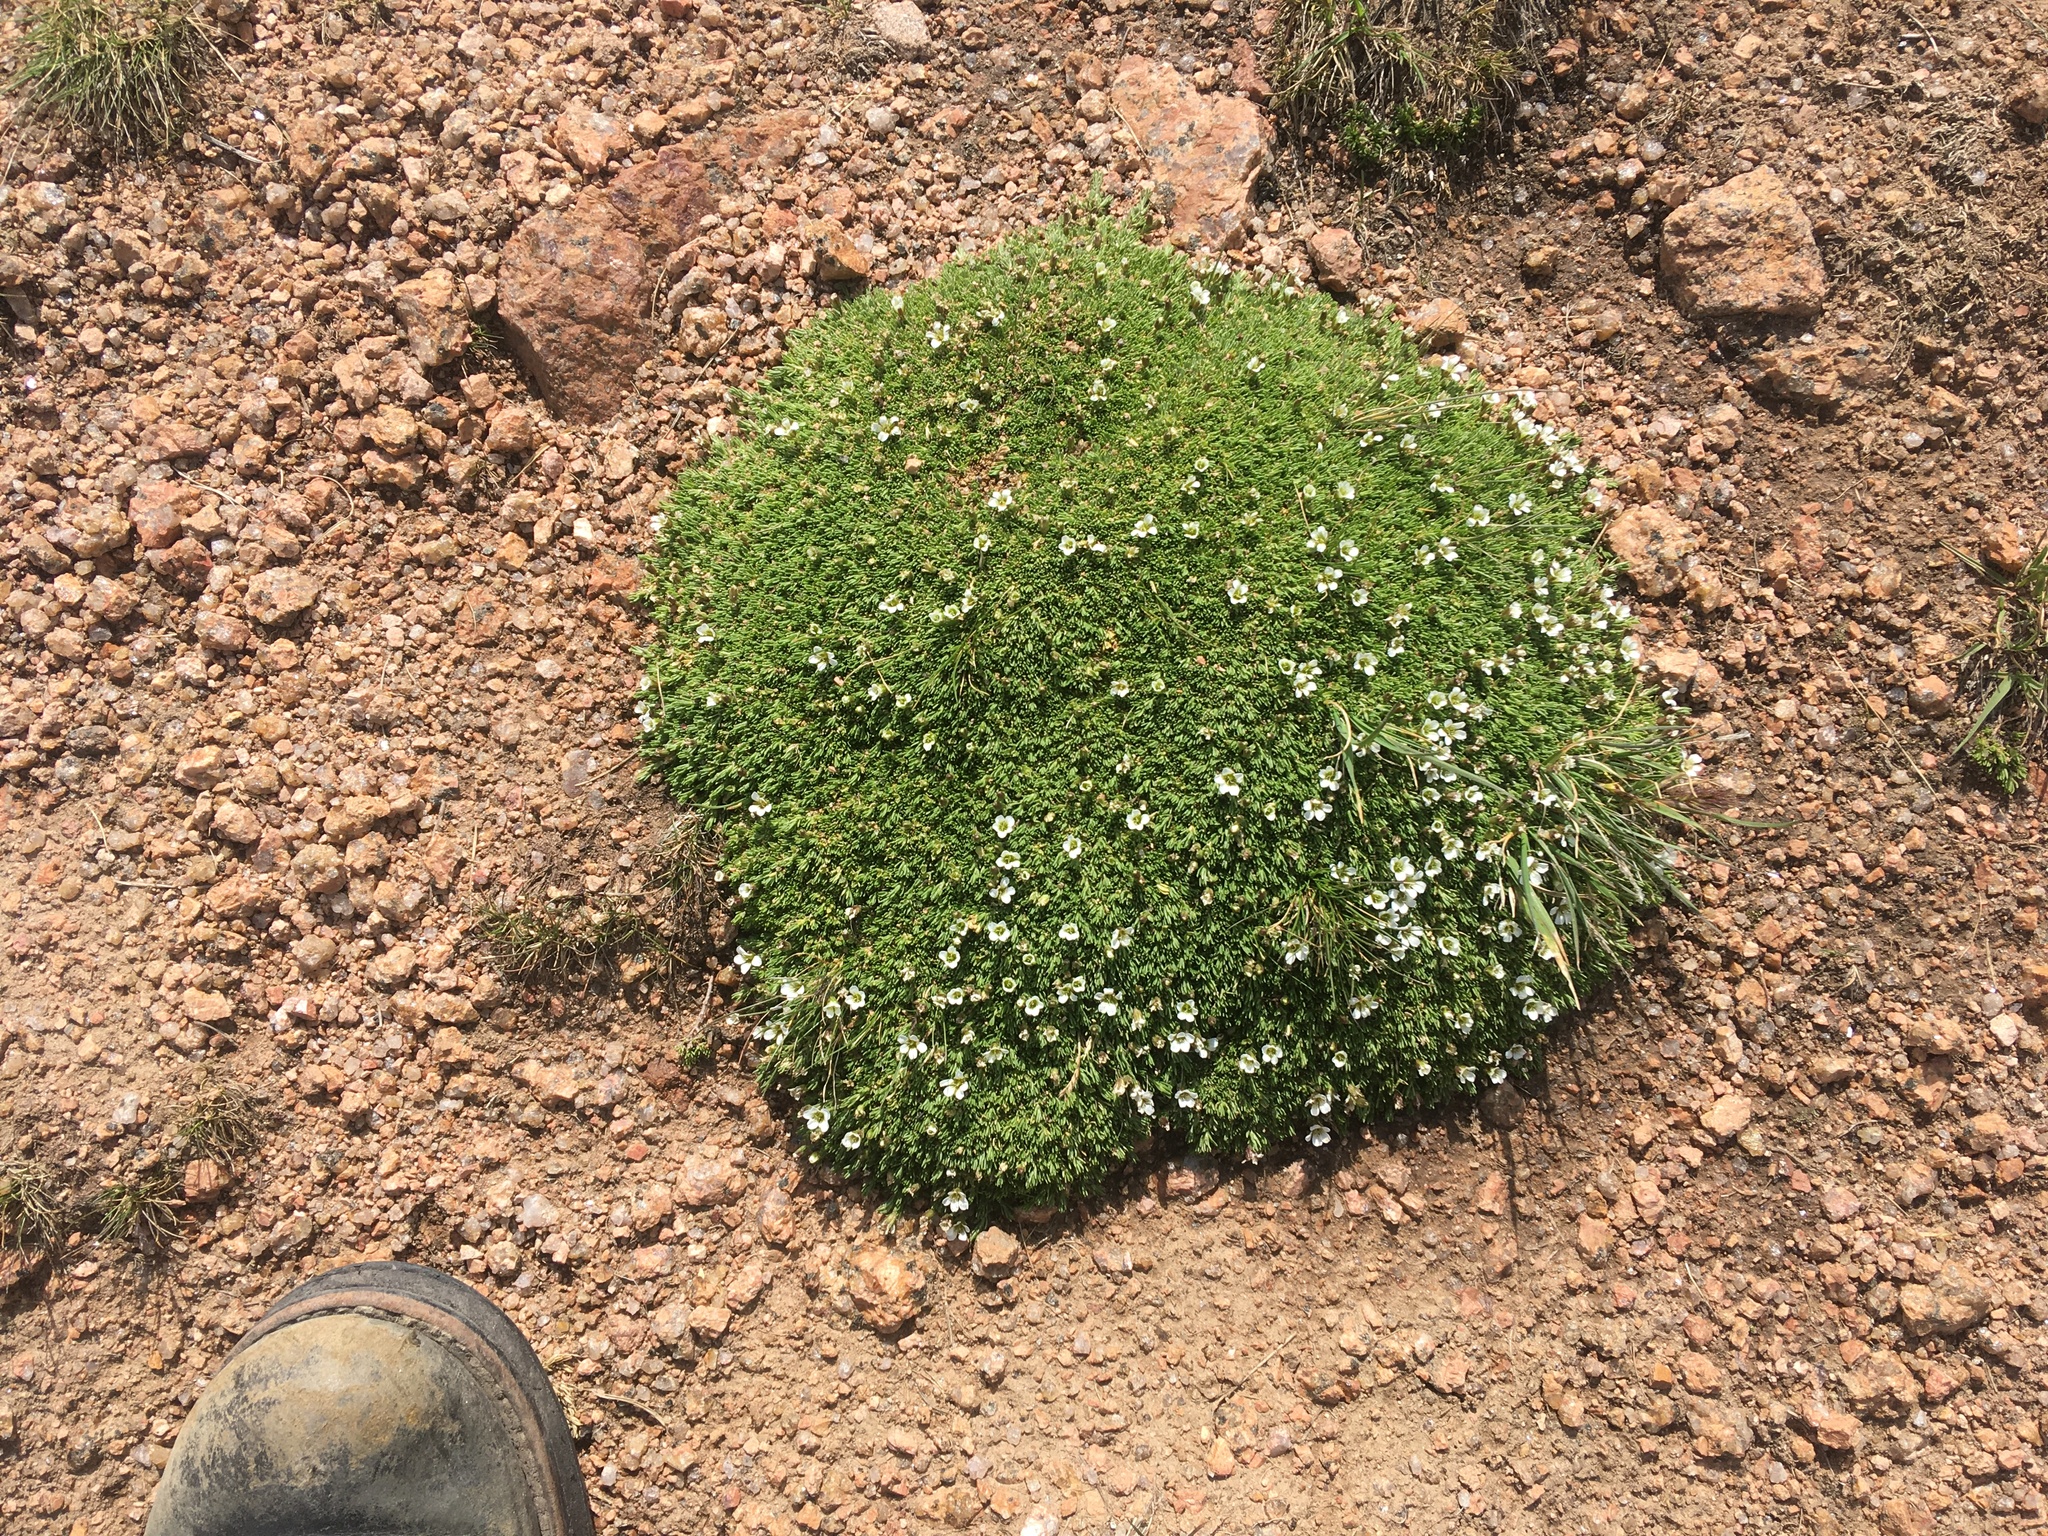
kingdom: Plantae
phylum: Tracheophyta
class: Magnoliopsida
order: Caryophyllales
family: Caryophyllaceae
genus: Cherleria
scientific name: Cherleria obtusiloba
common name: Alpine stitchwort
